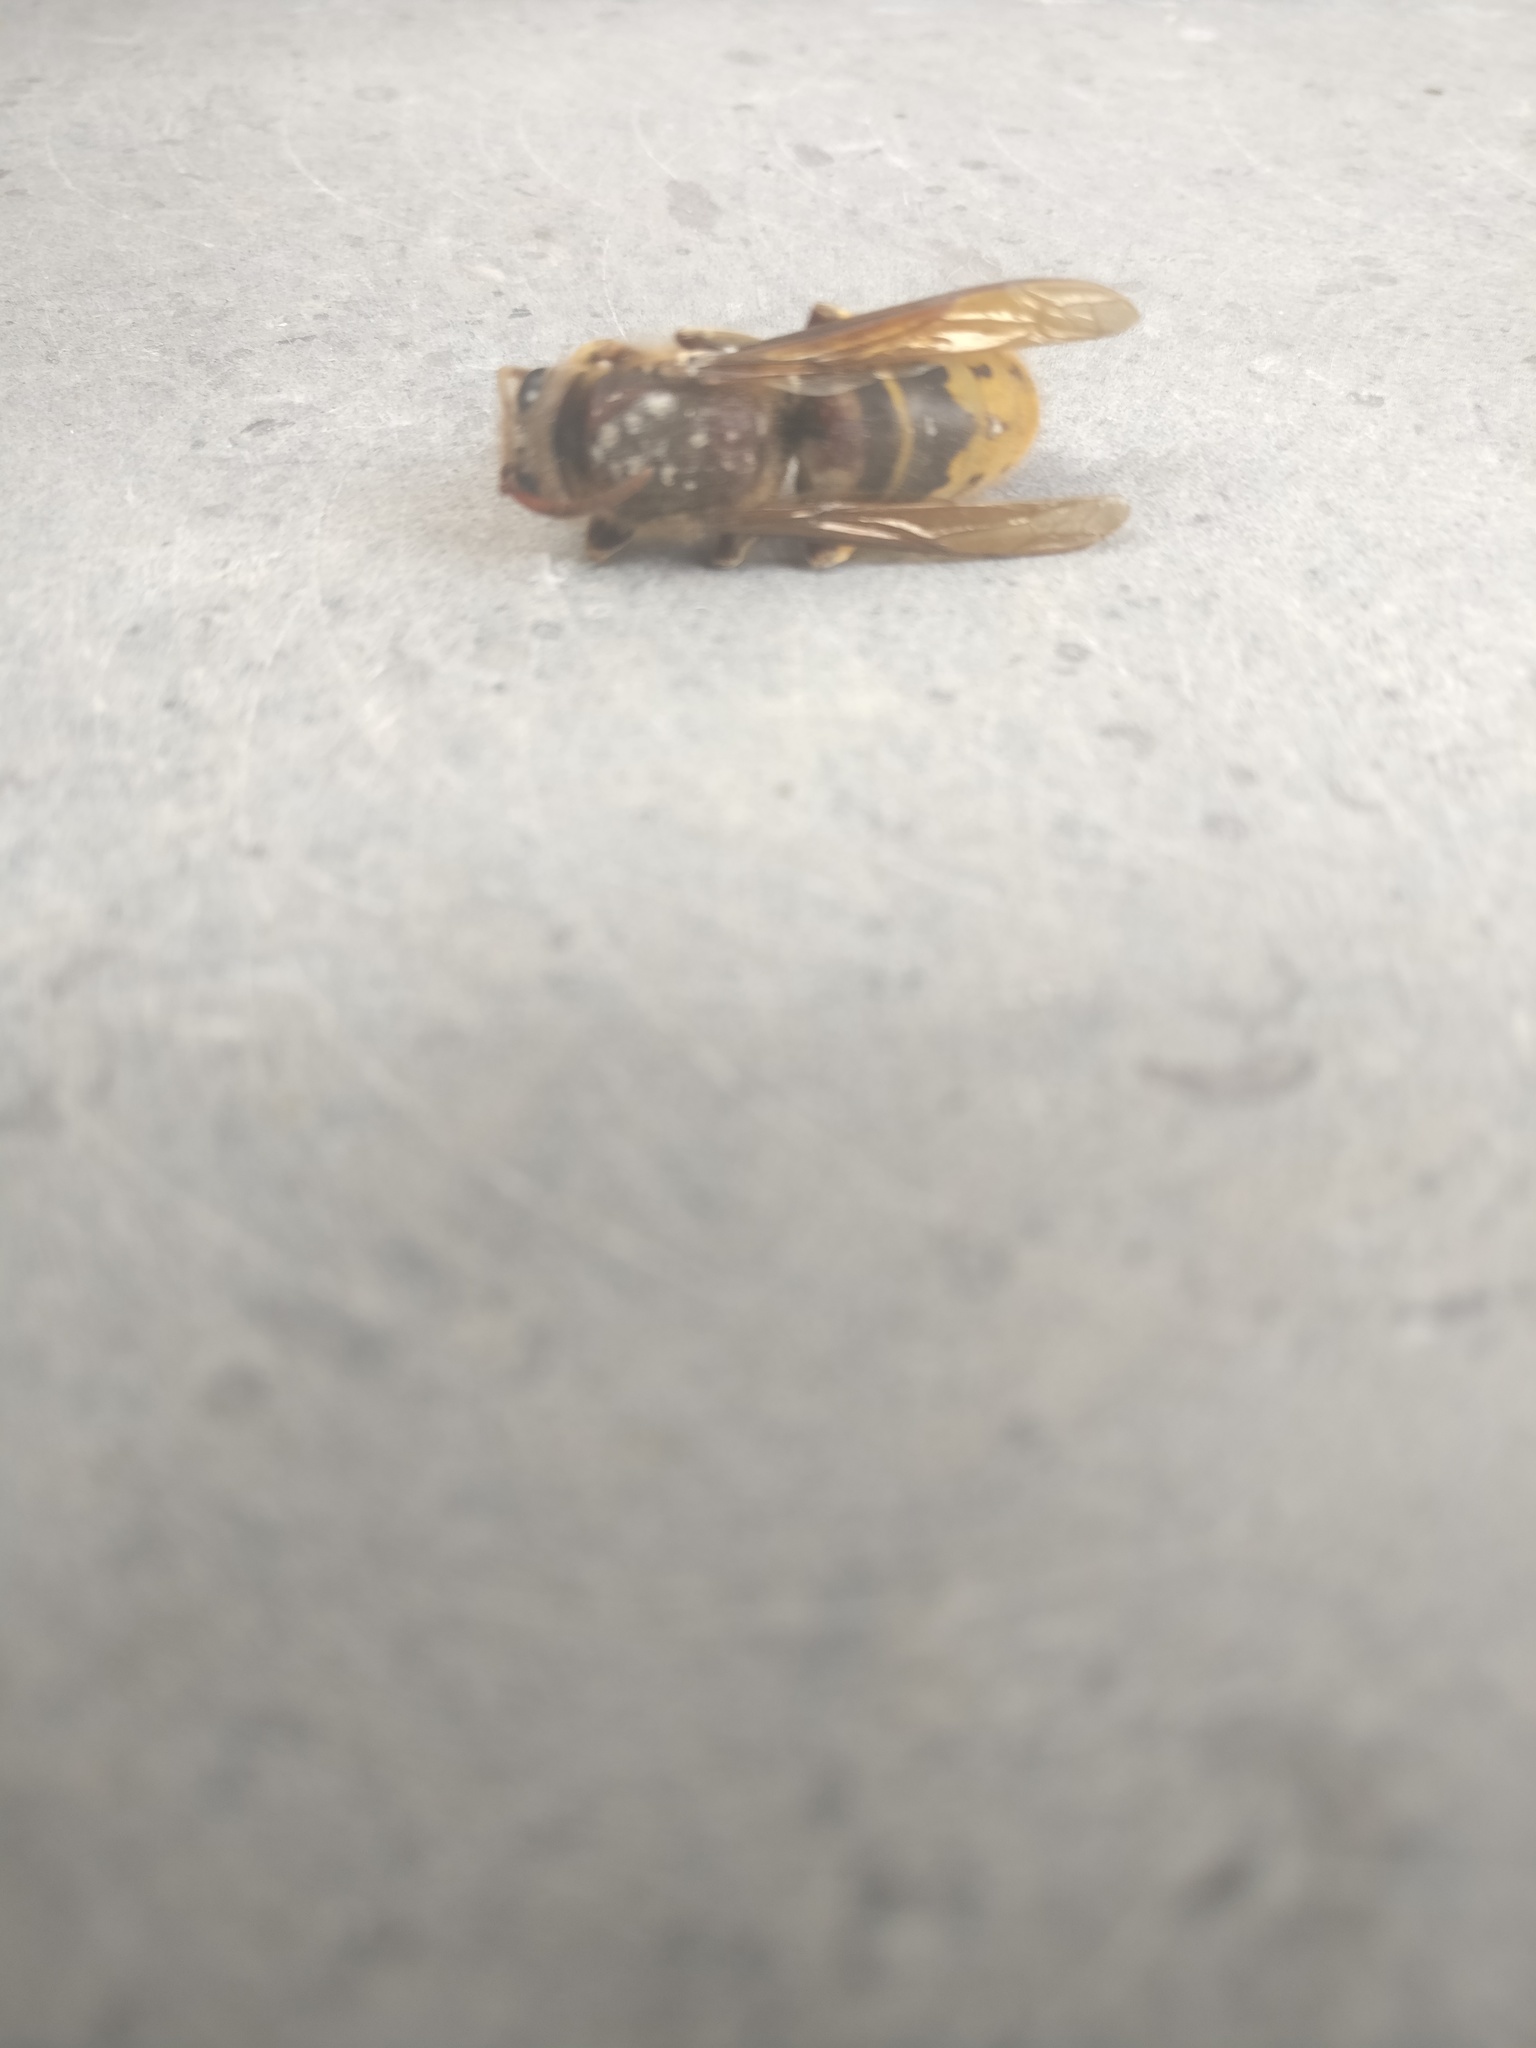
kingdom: Animalia
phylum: Arthropoda
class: Insecta
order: Hymenoptera
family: Vespidae
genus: Vespa
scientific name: Vespa crabro
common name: Hornet
